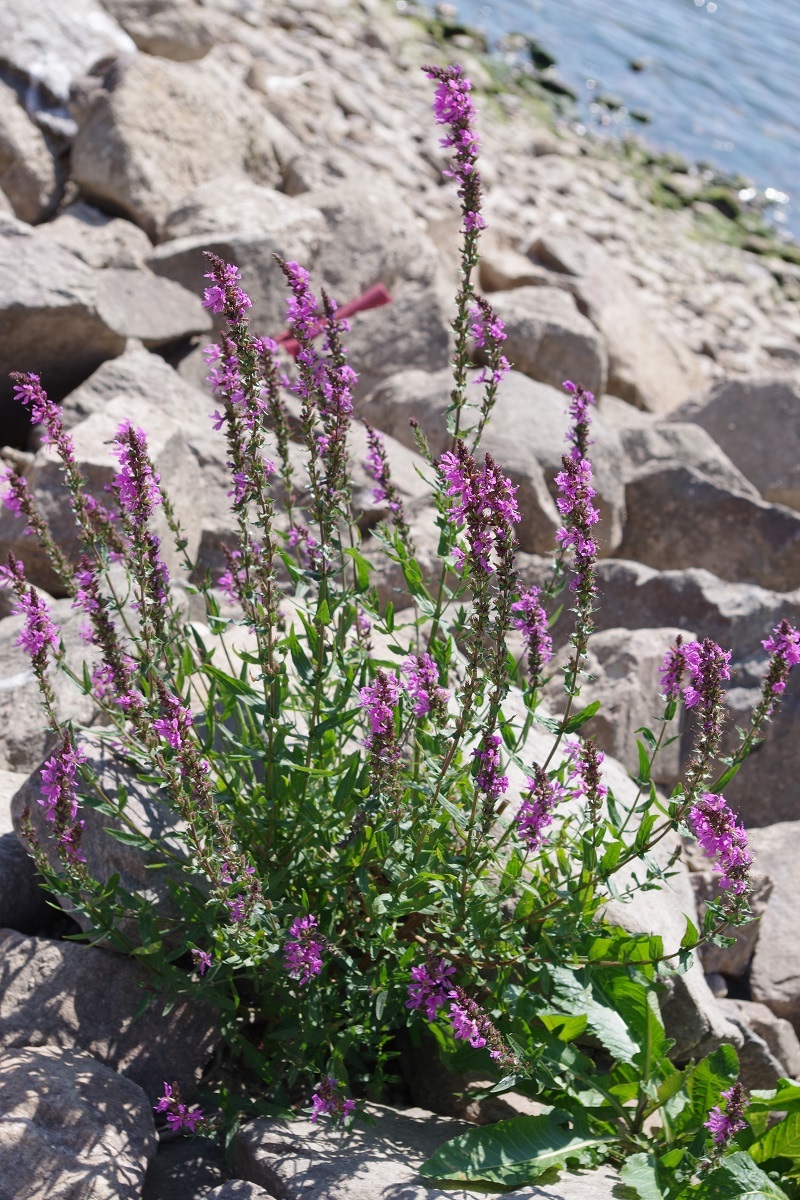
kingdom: Plantae
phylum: Tracheophyta
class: Magnoliopsida
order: Myrtales
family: Lythraceae
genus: Lythrum
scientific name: Lythrum salicaria
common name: Purple loosestrife
